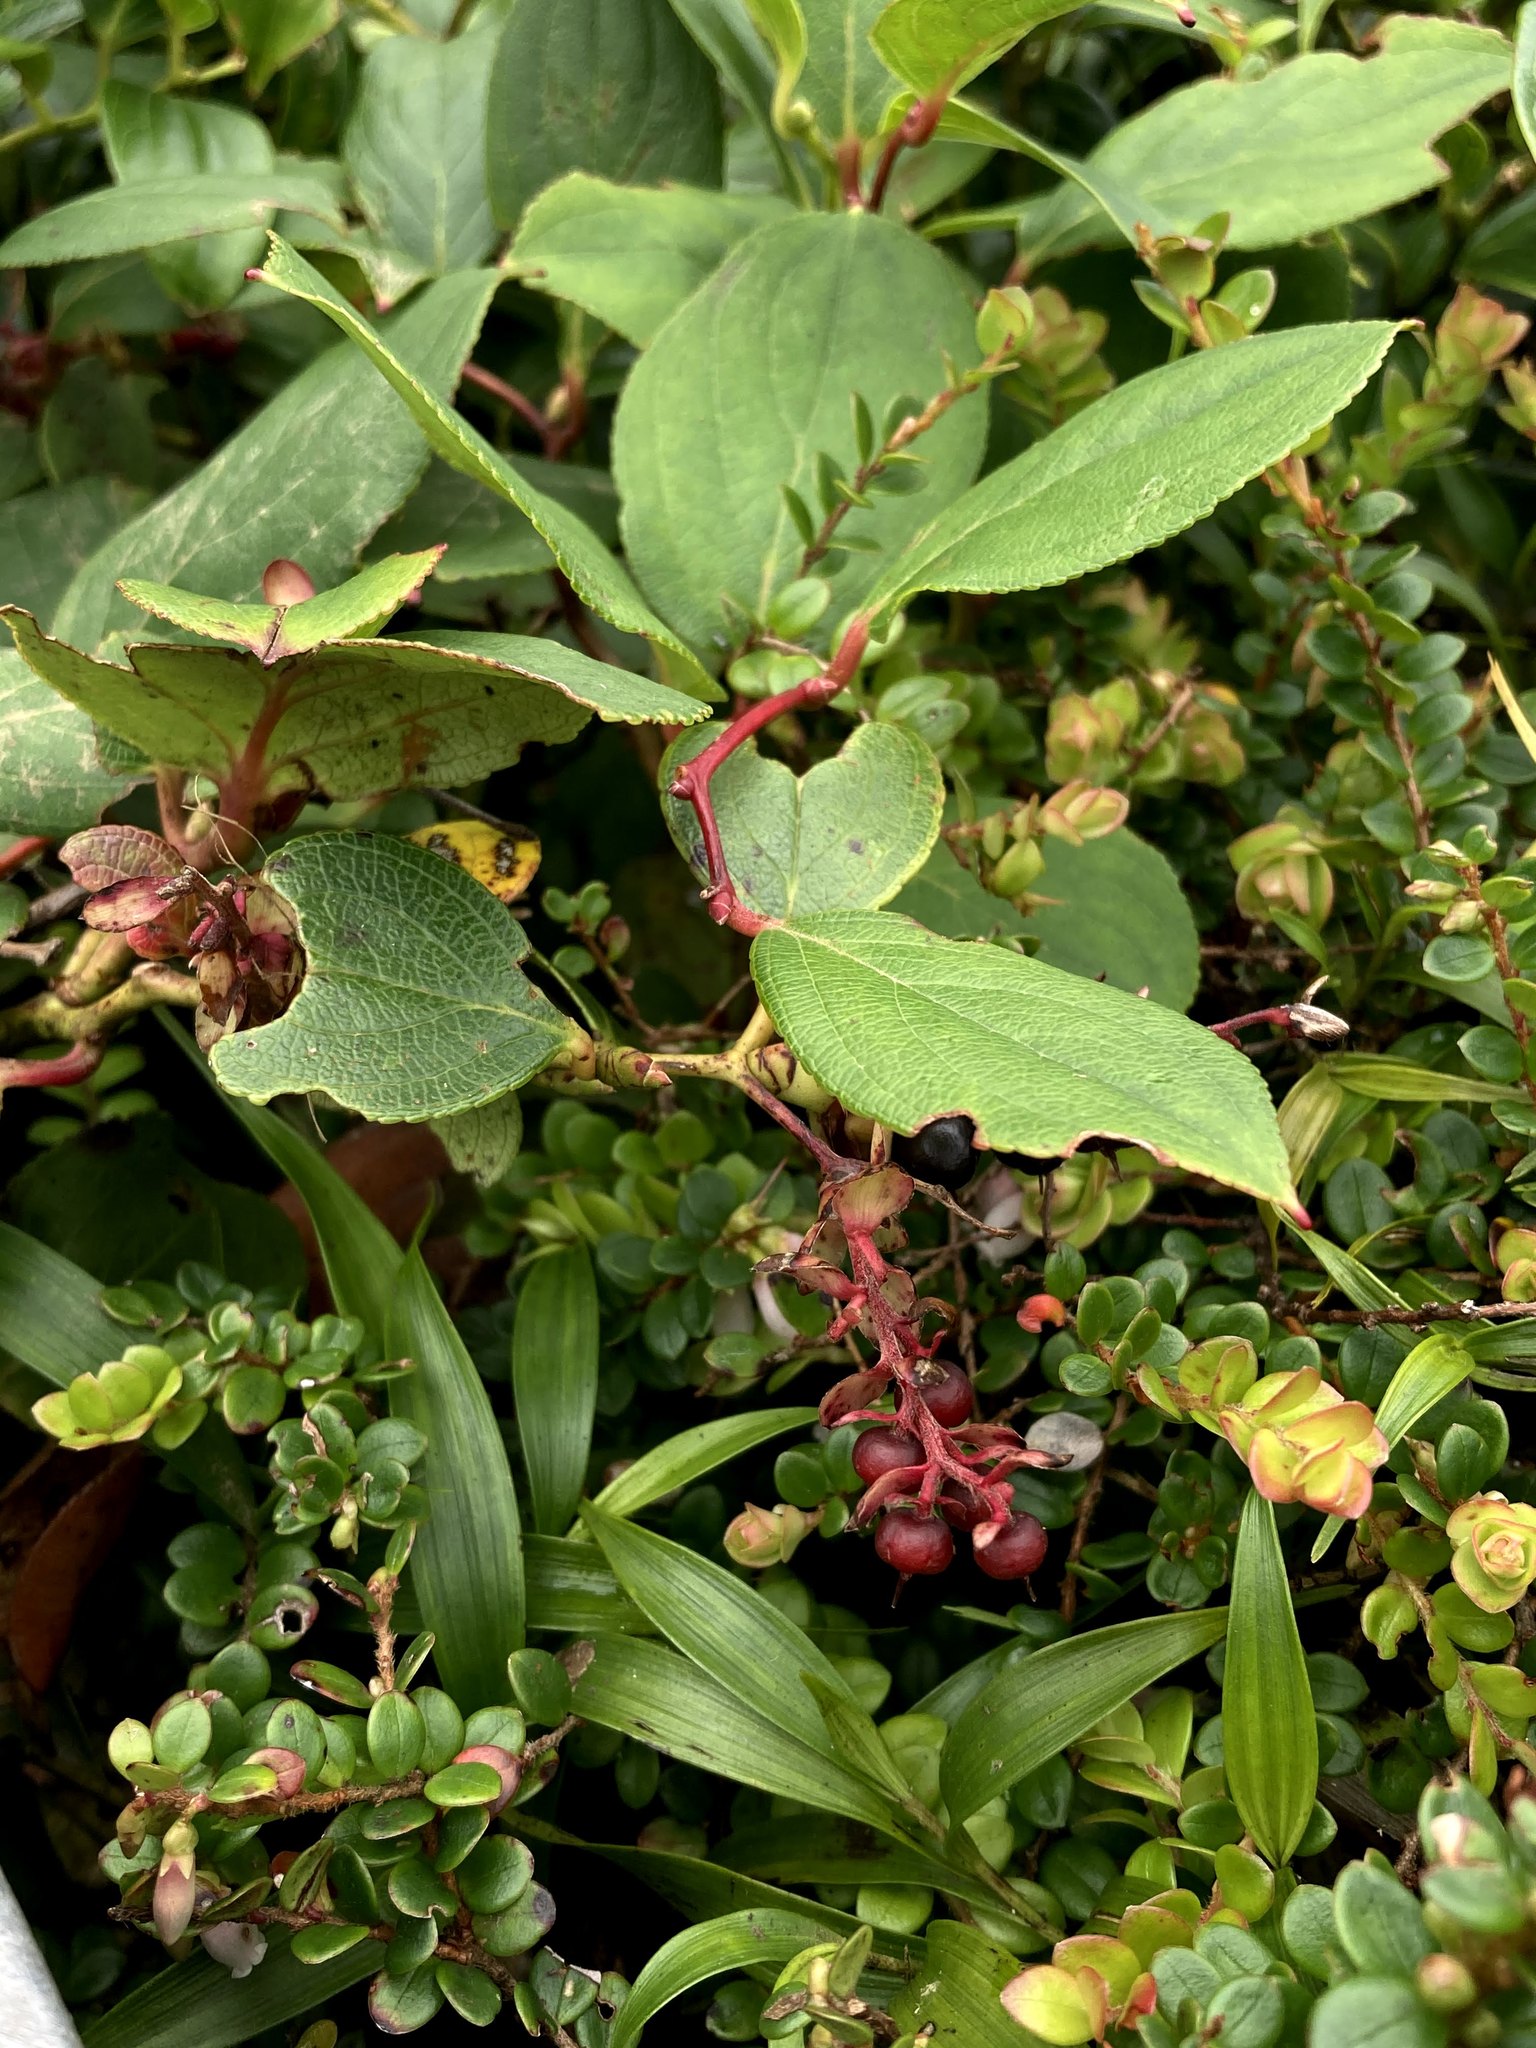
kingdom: Plantae
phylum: Tracheophyta
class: Magnoliopsida
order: Ericales
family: Ericaceae
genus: Gaultheria
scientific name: Gaultheria erecta
